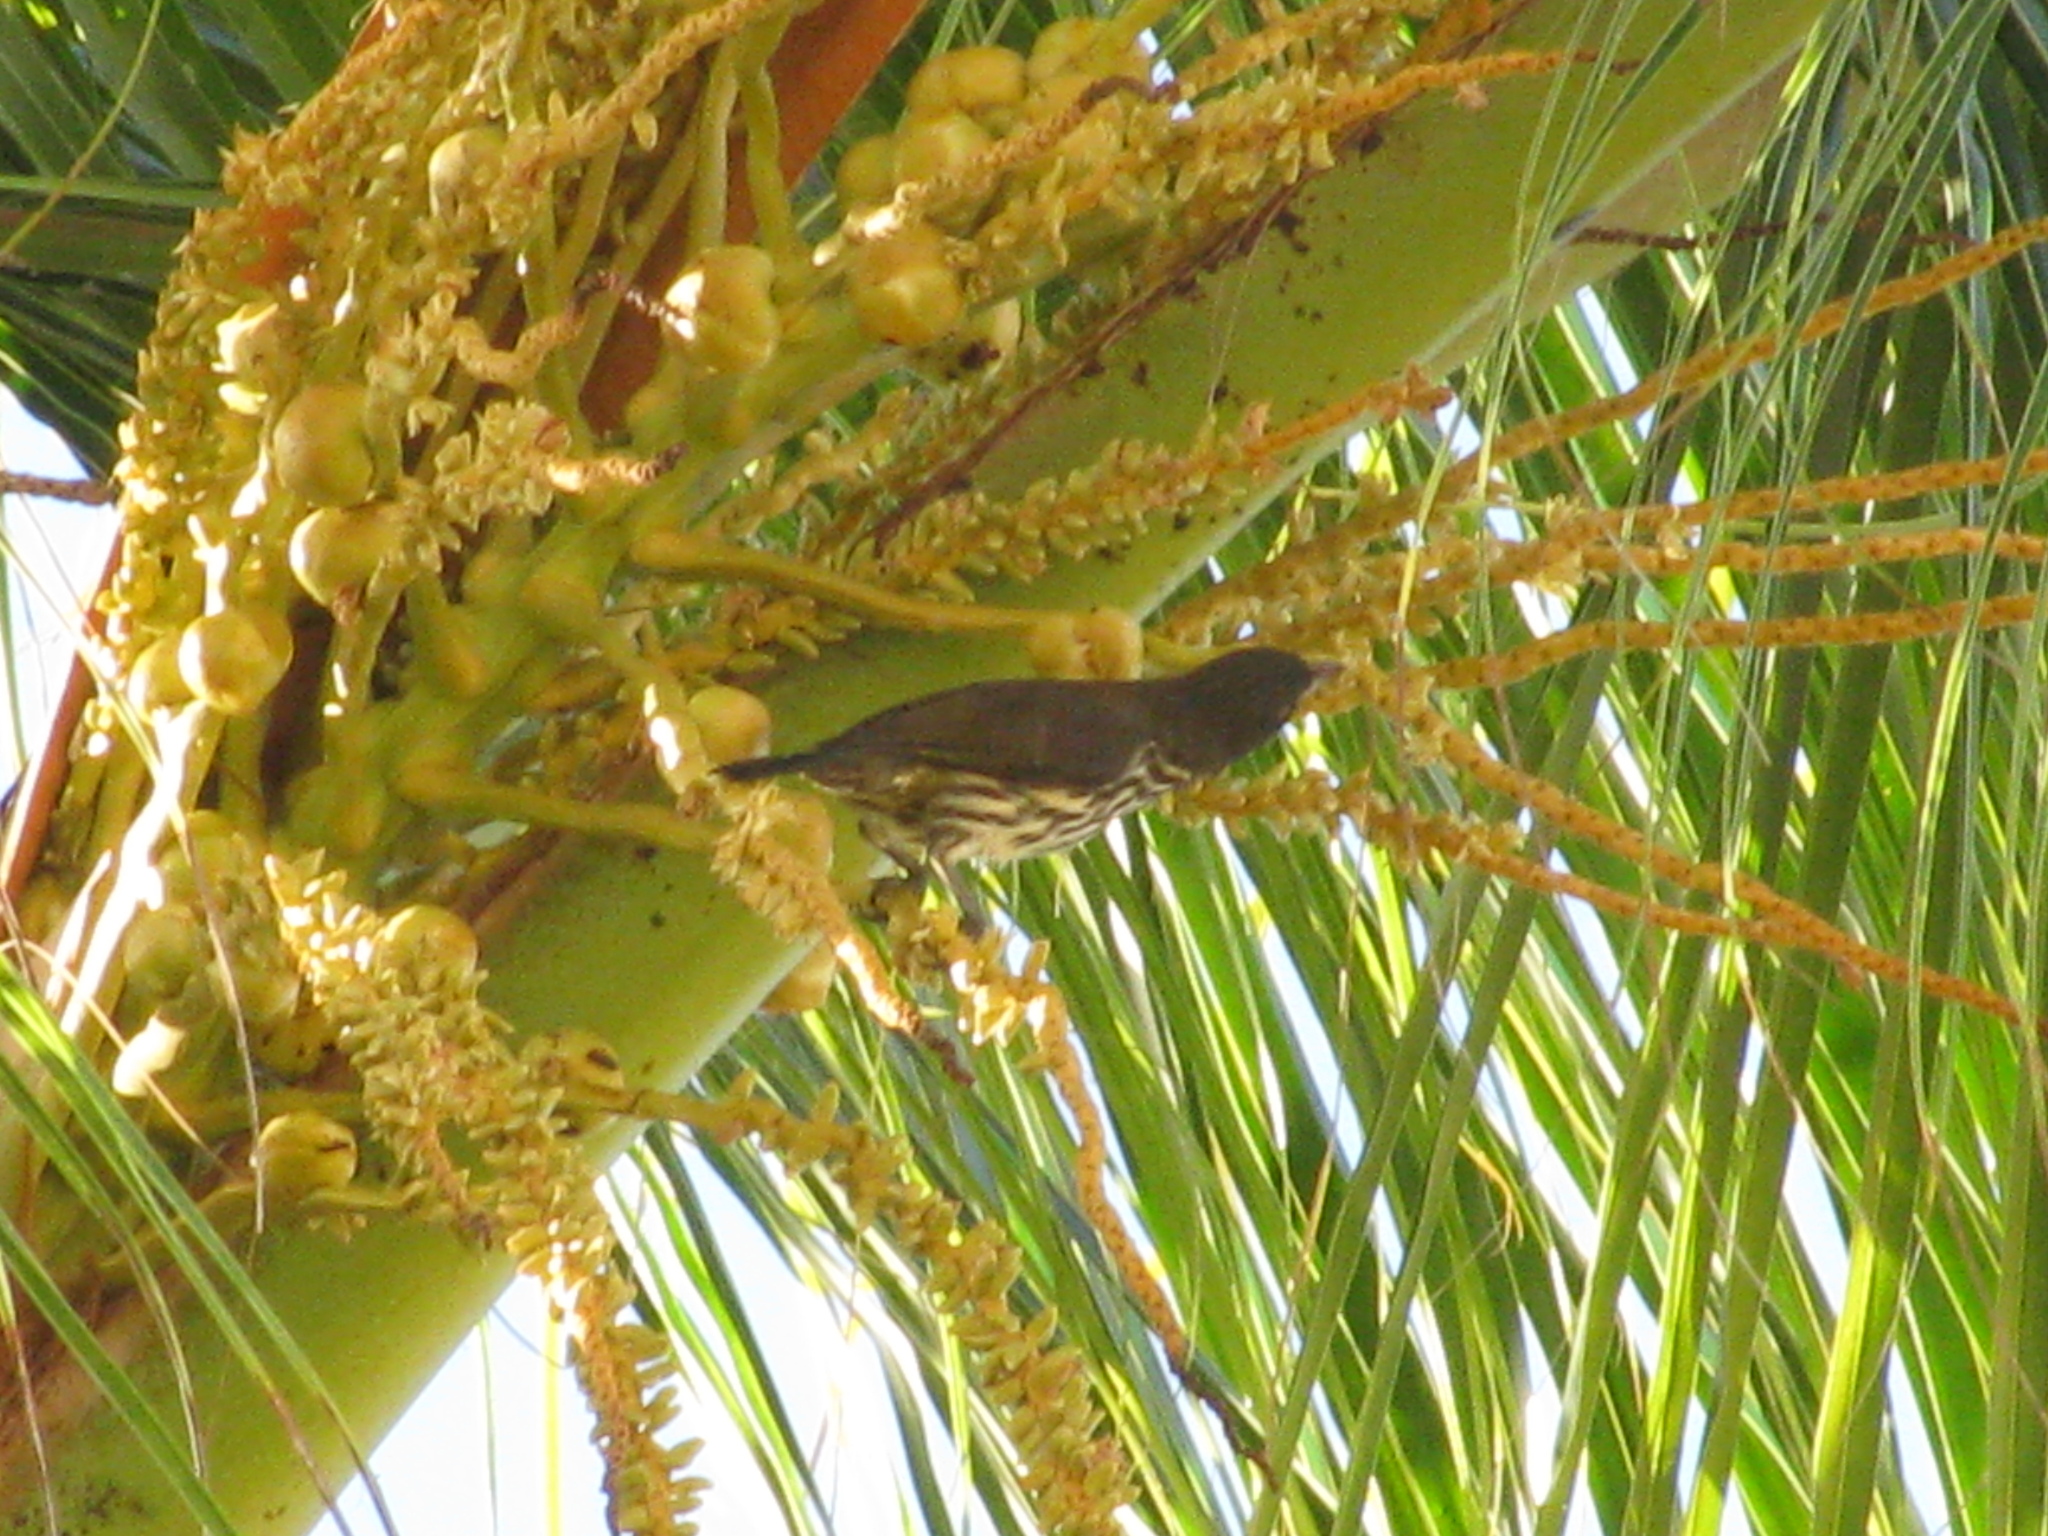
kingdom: Animalia
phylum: Chordata
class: Aves
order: Passeriformes
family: Dulidae
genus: Dulus
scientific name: Dulus dominicus
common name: Palmchat
